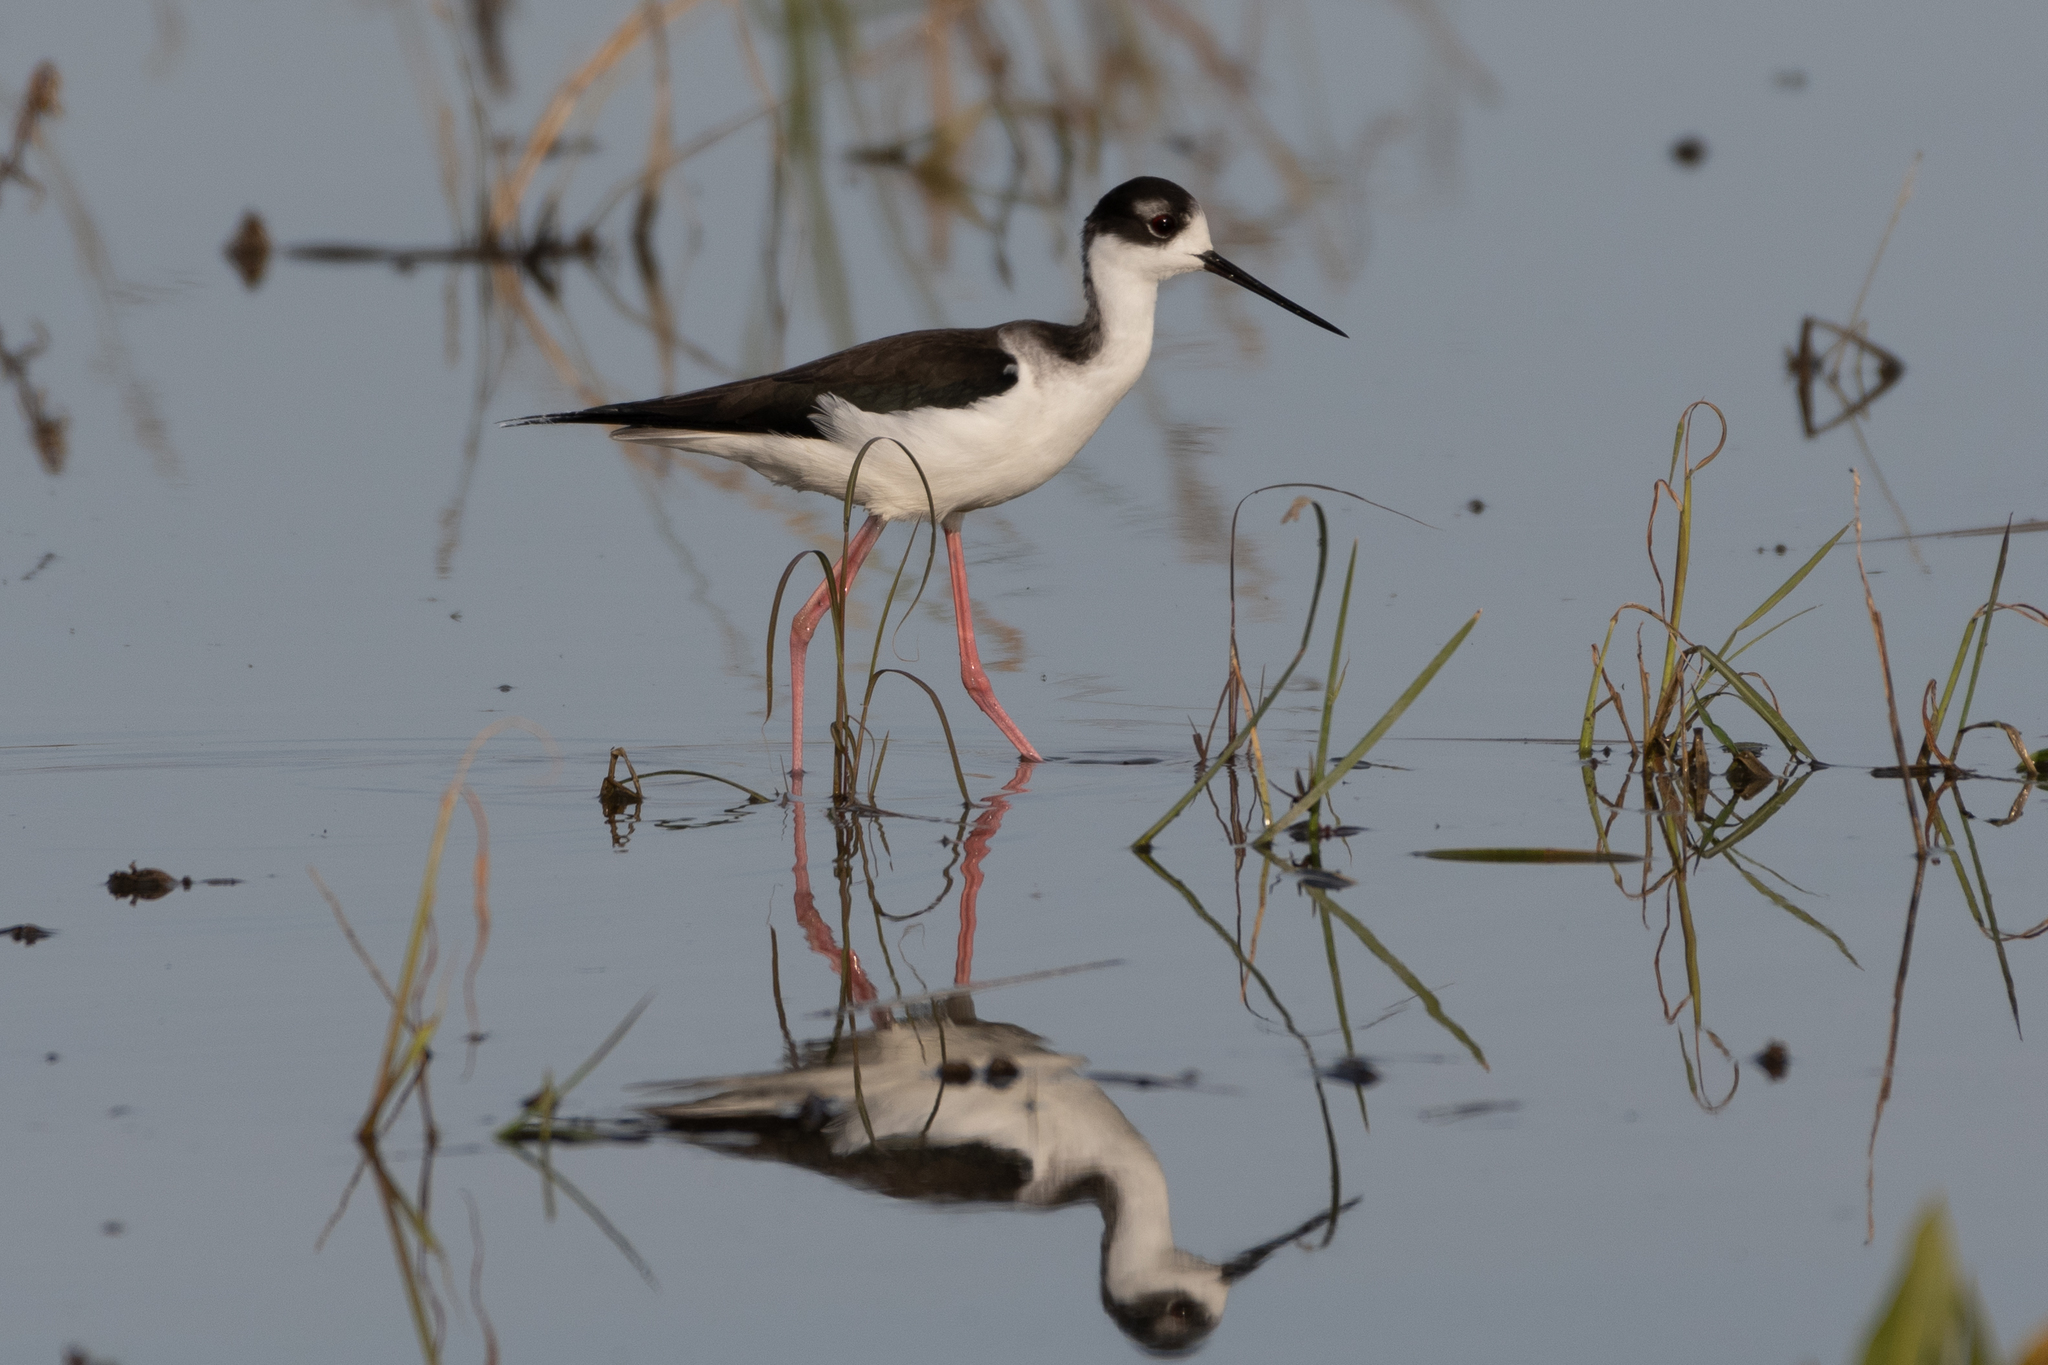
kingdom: Animalia
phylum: Chordata
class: Aves
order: Charadriiformes
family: Recurvirostridae
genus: Himantopus
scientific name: Himantopus mexicanus
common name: Black-necked stilt
